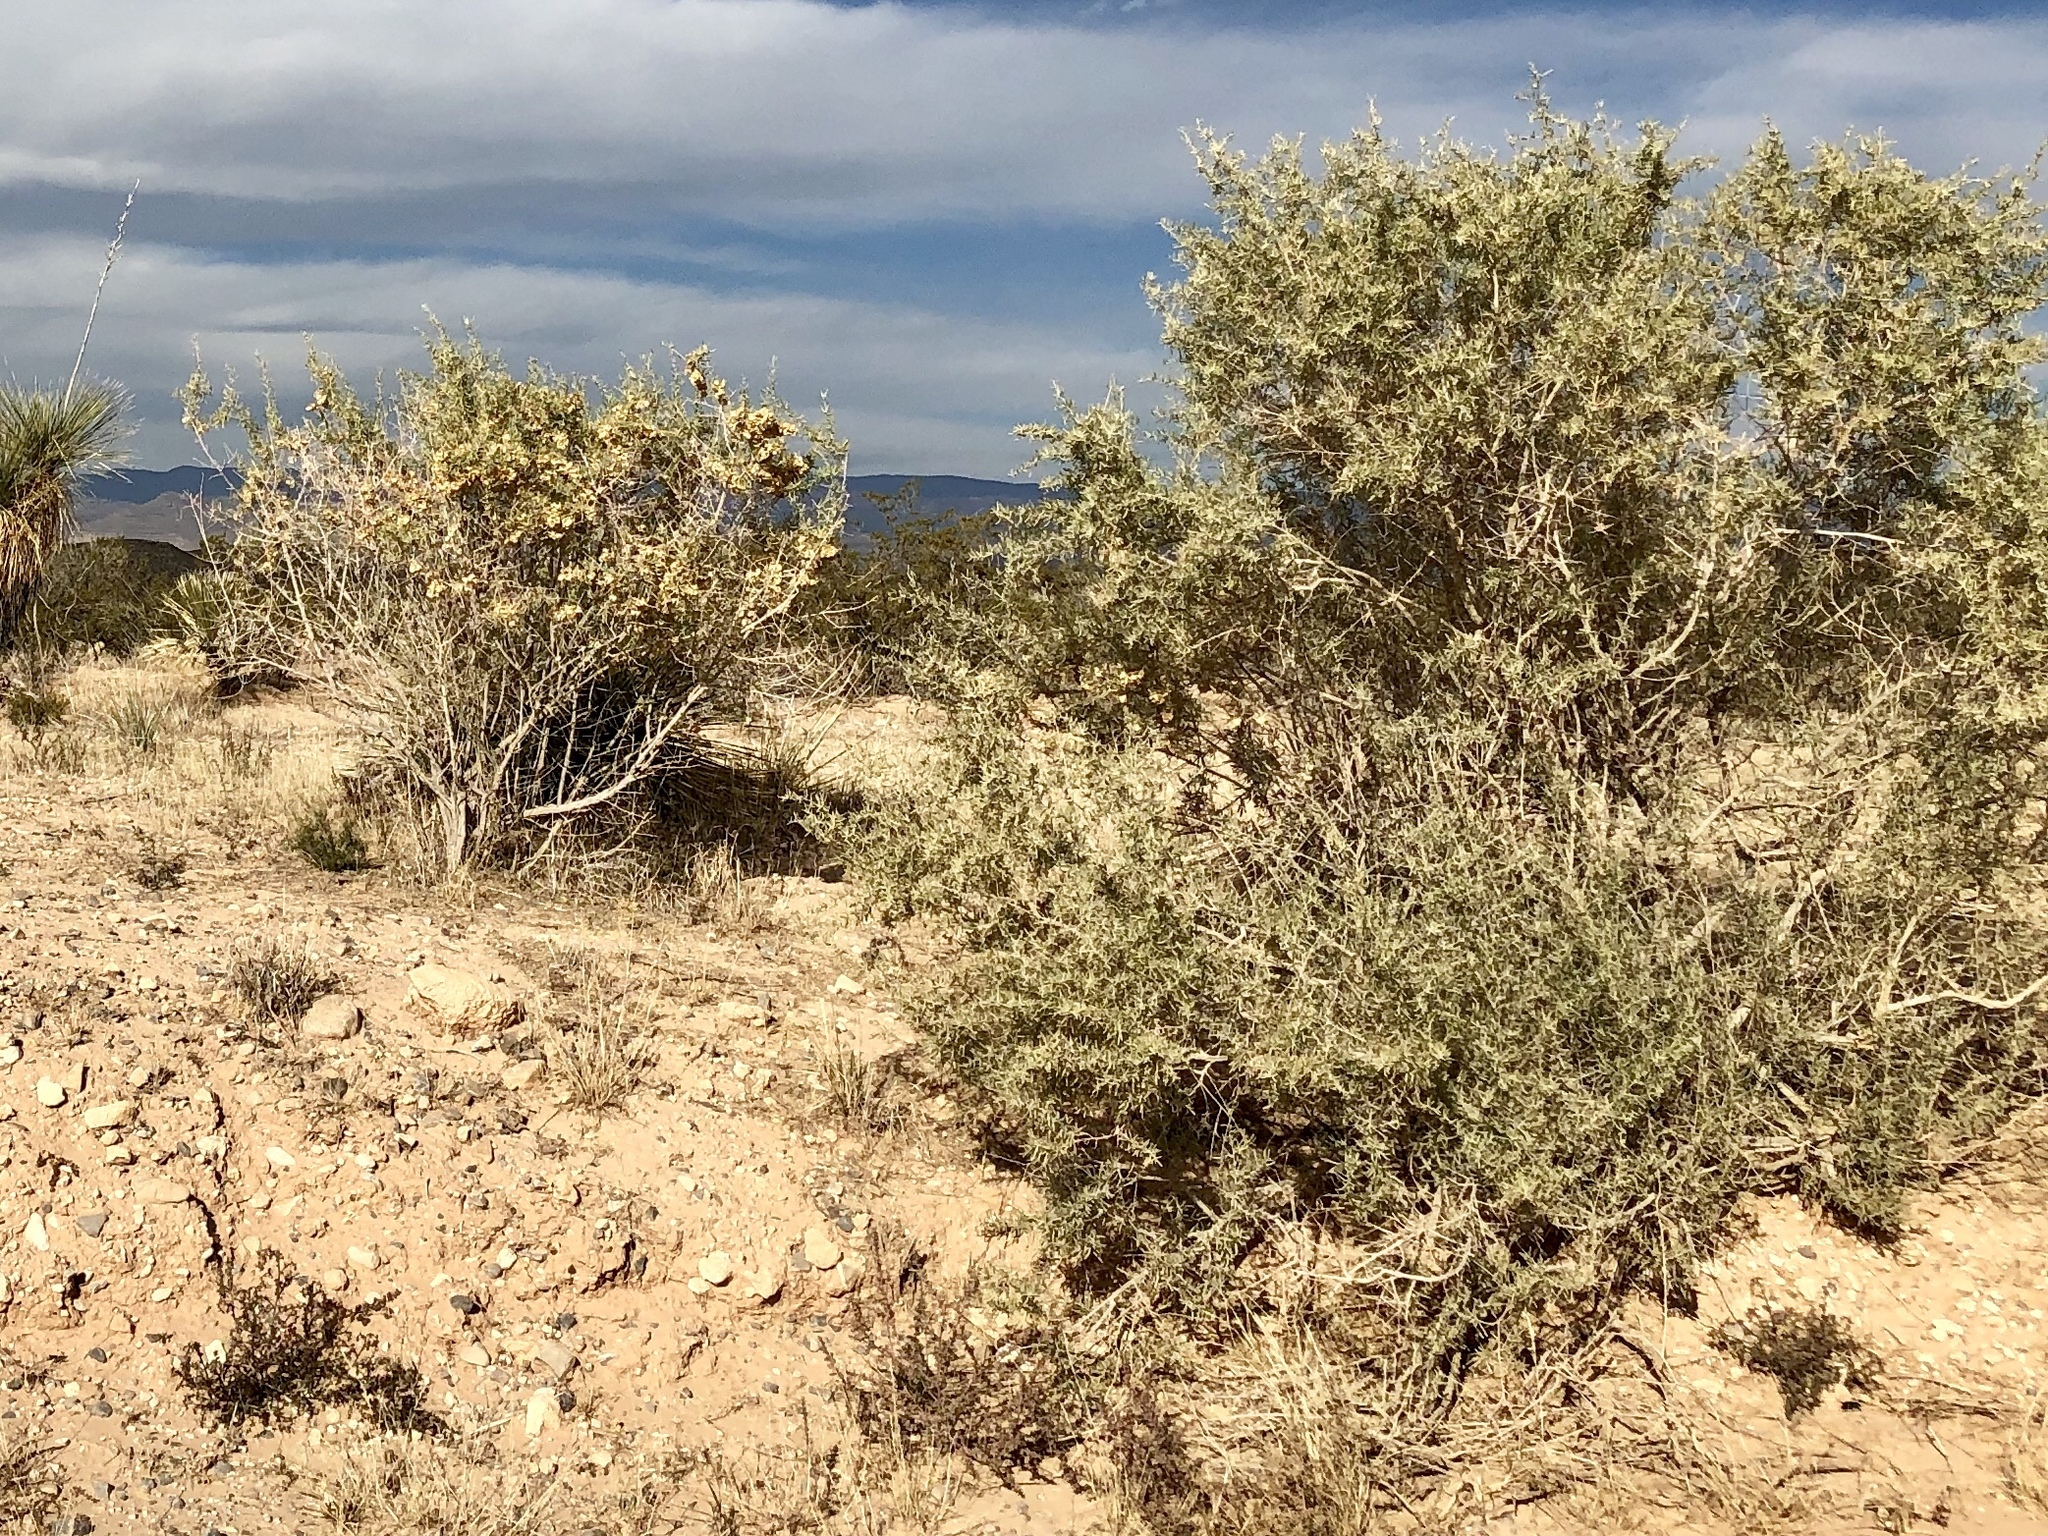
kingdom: Plantae
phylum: Tracheophyta
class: Magnoliopsida
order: Caryophyllales
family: Amaranthaceae
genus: Atriplex
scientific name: Atriplex canescens
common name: Four-wing saltbush
